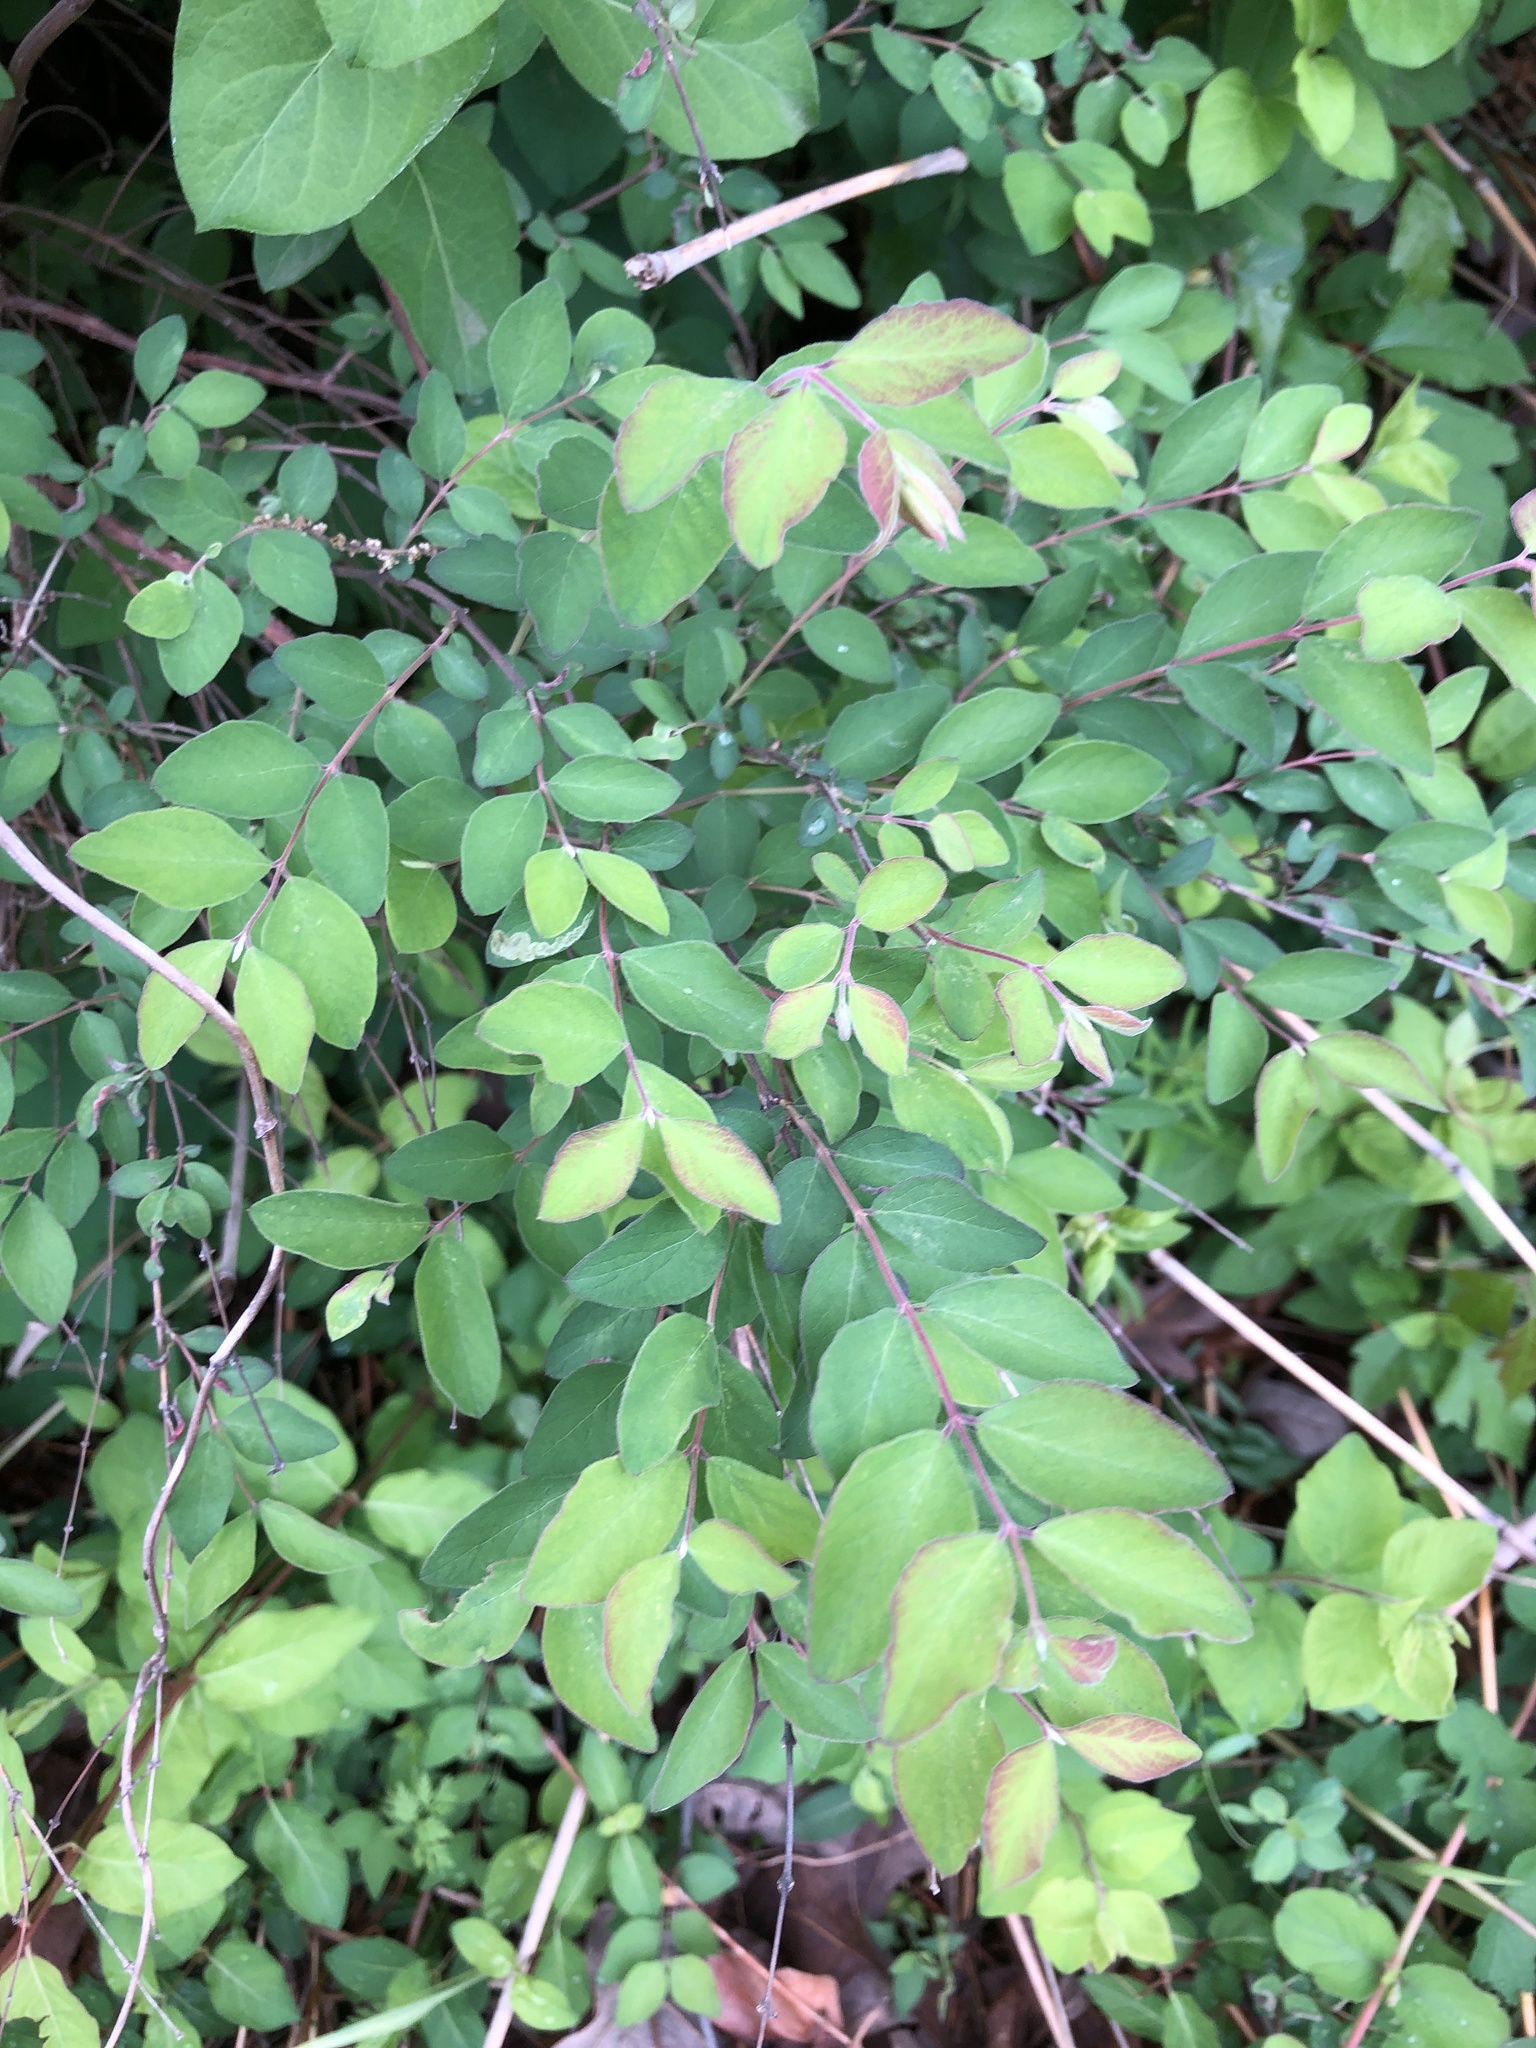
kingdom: Plantae
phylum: Tracheophyta
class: Magnoliopsida
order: Dipsacales
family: Caprifoliaceae
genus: Symphoricarpos
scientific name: Symphoricarpos orbiculatus
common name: Coralberry
